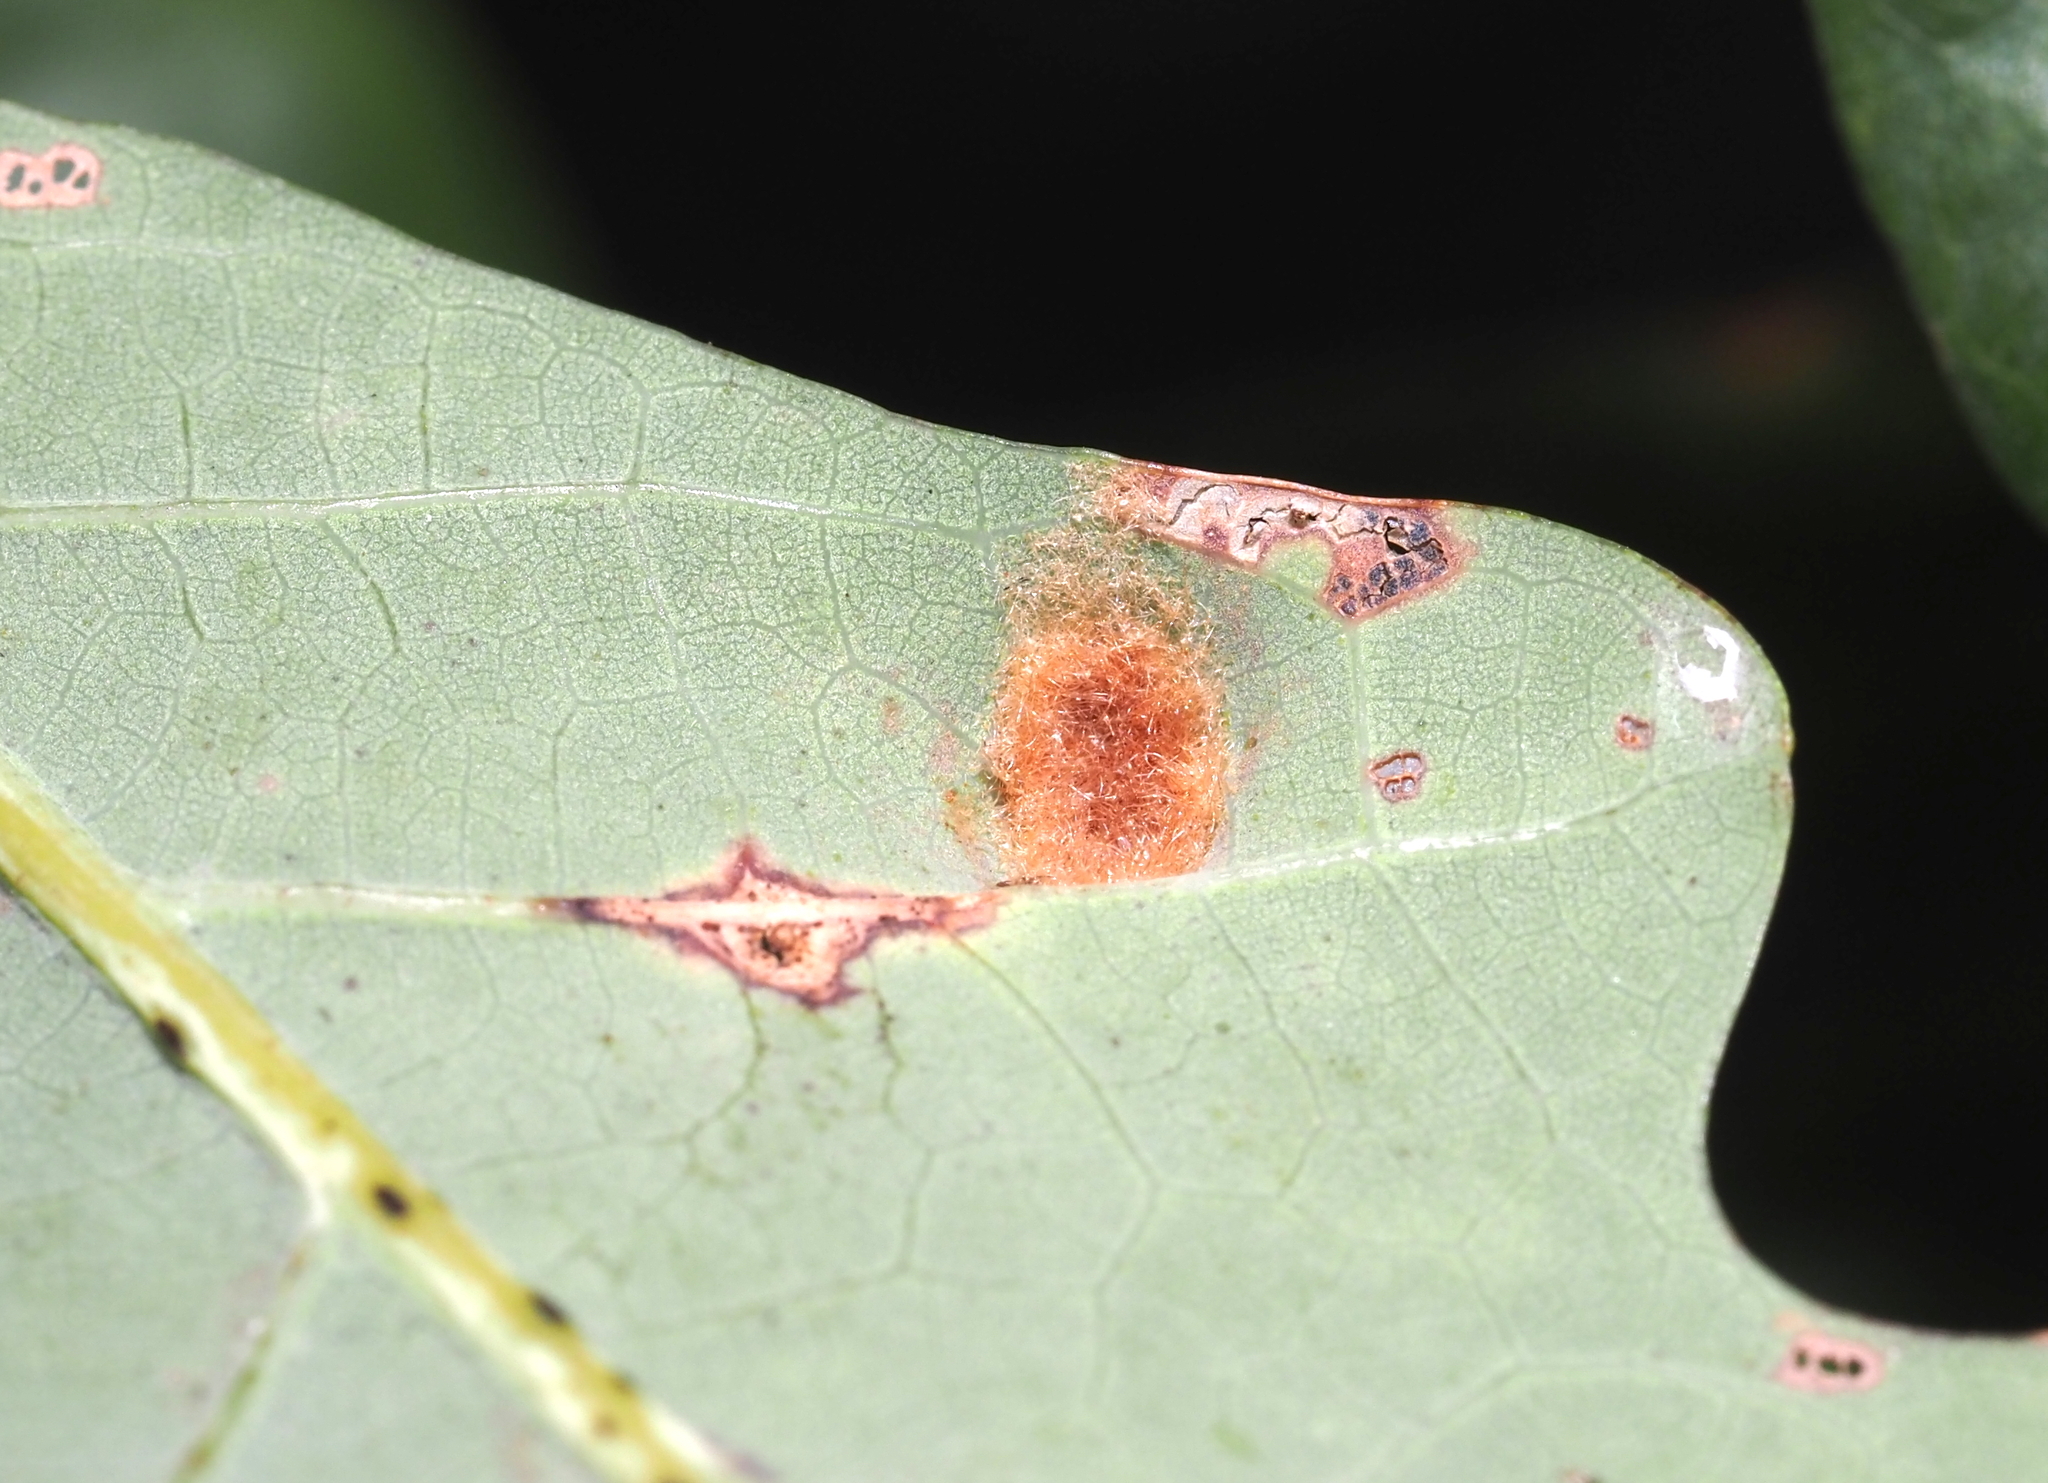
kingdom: Animalia
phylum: Arthropoda
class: Arachnida
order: Trombidiformes
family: Eriophyidae
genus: Aceria
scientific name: Aceria
